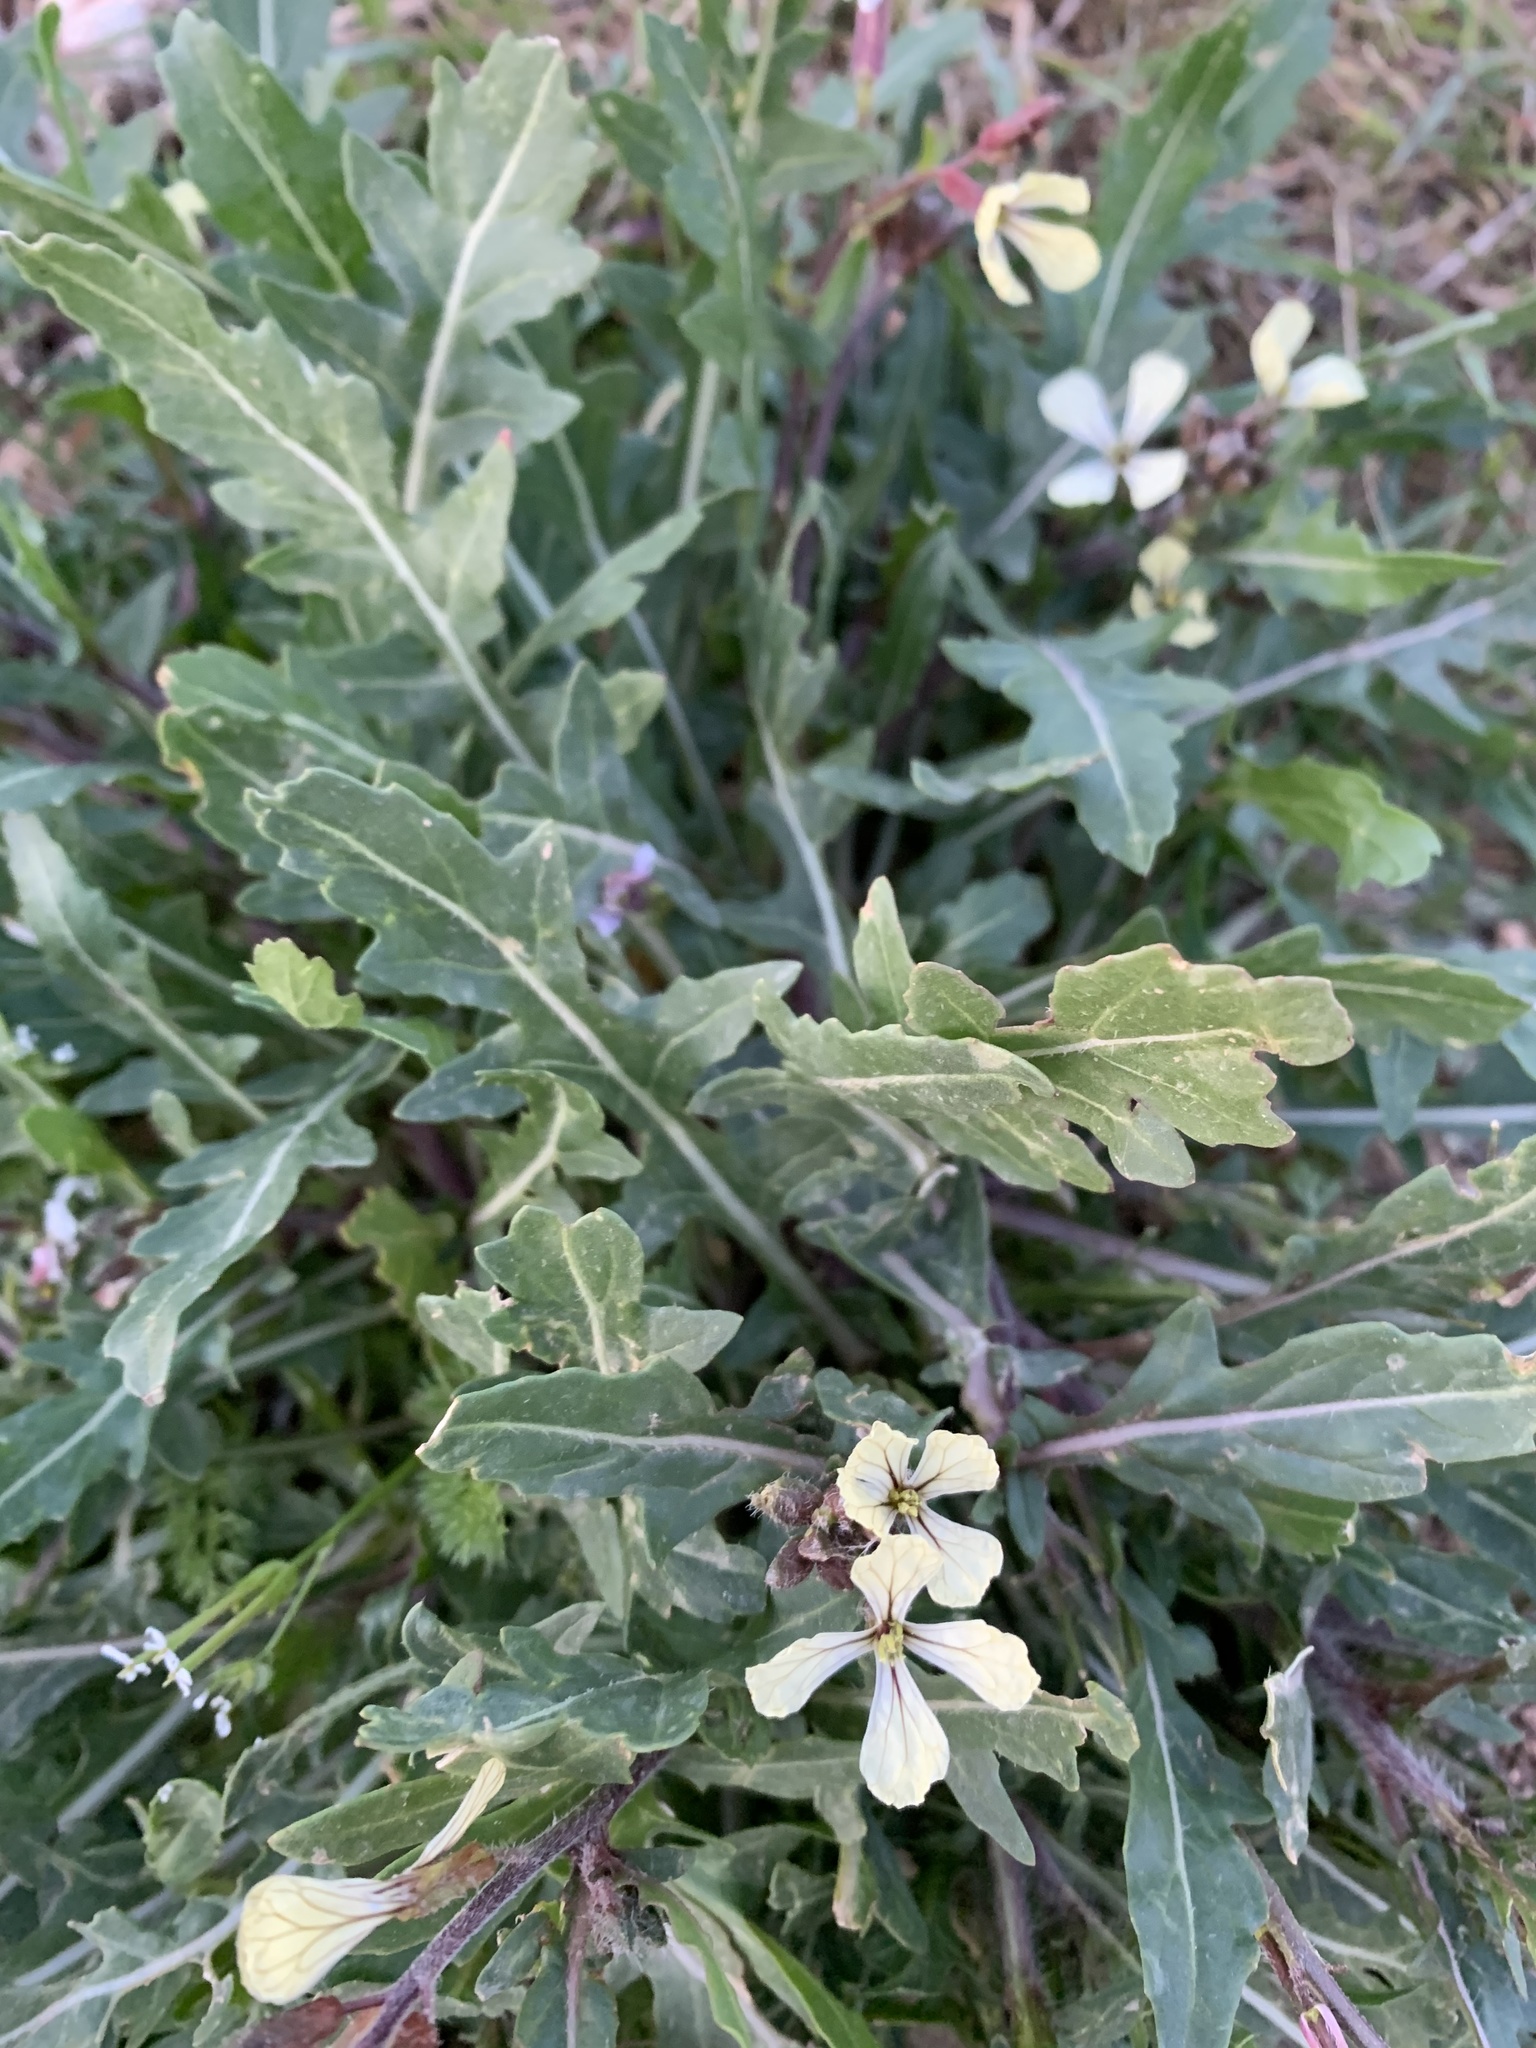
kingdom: Plantae
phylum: Tracheophyta
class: Magnoliopsida
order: Brassicales
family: Brassicaceae
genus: Eruca
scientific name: Eruca vesicaria
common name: Garden rocket
